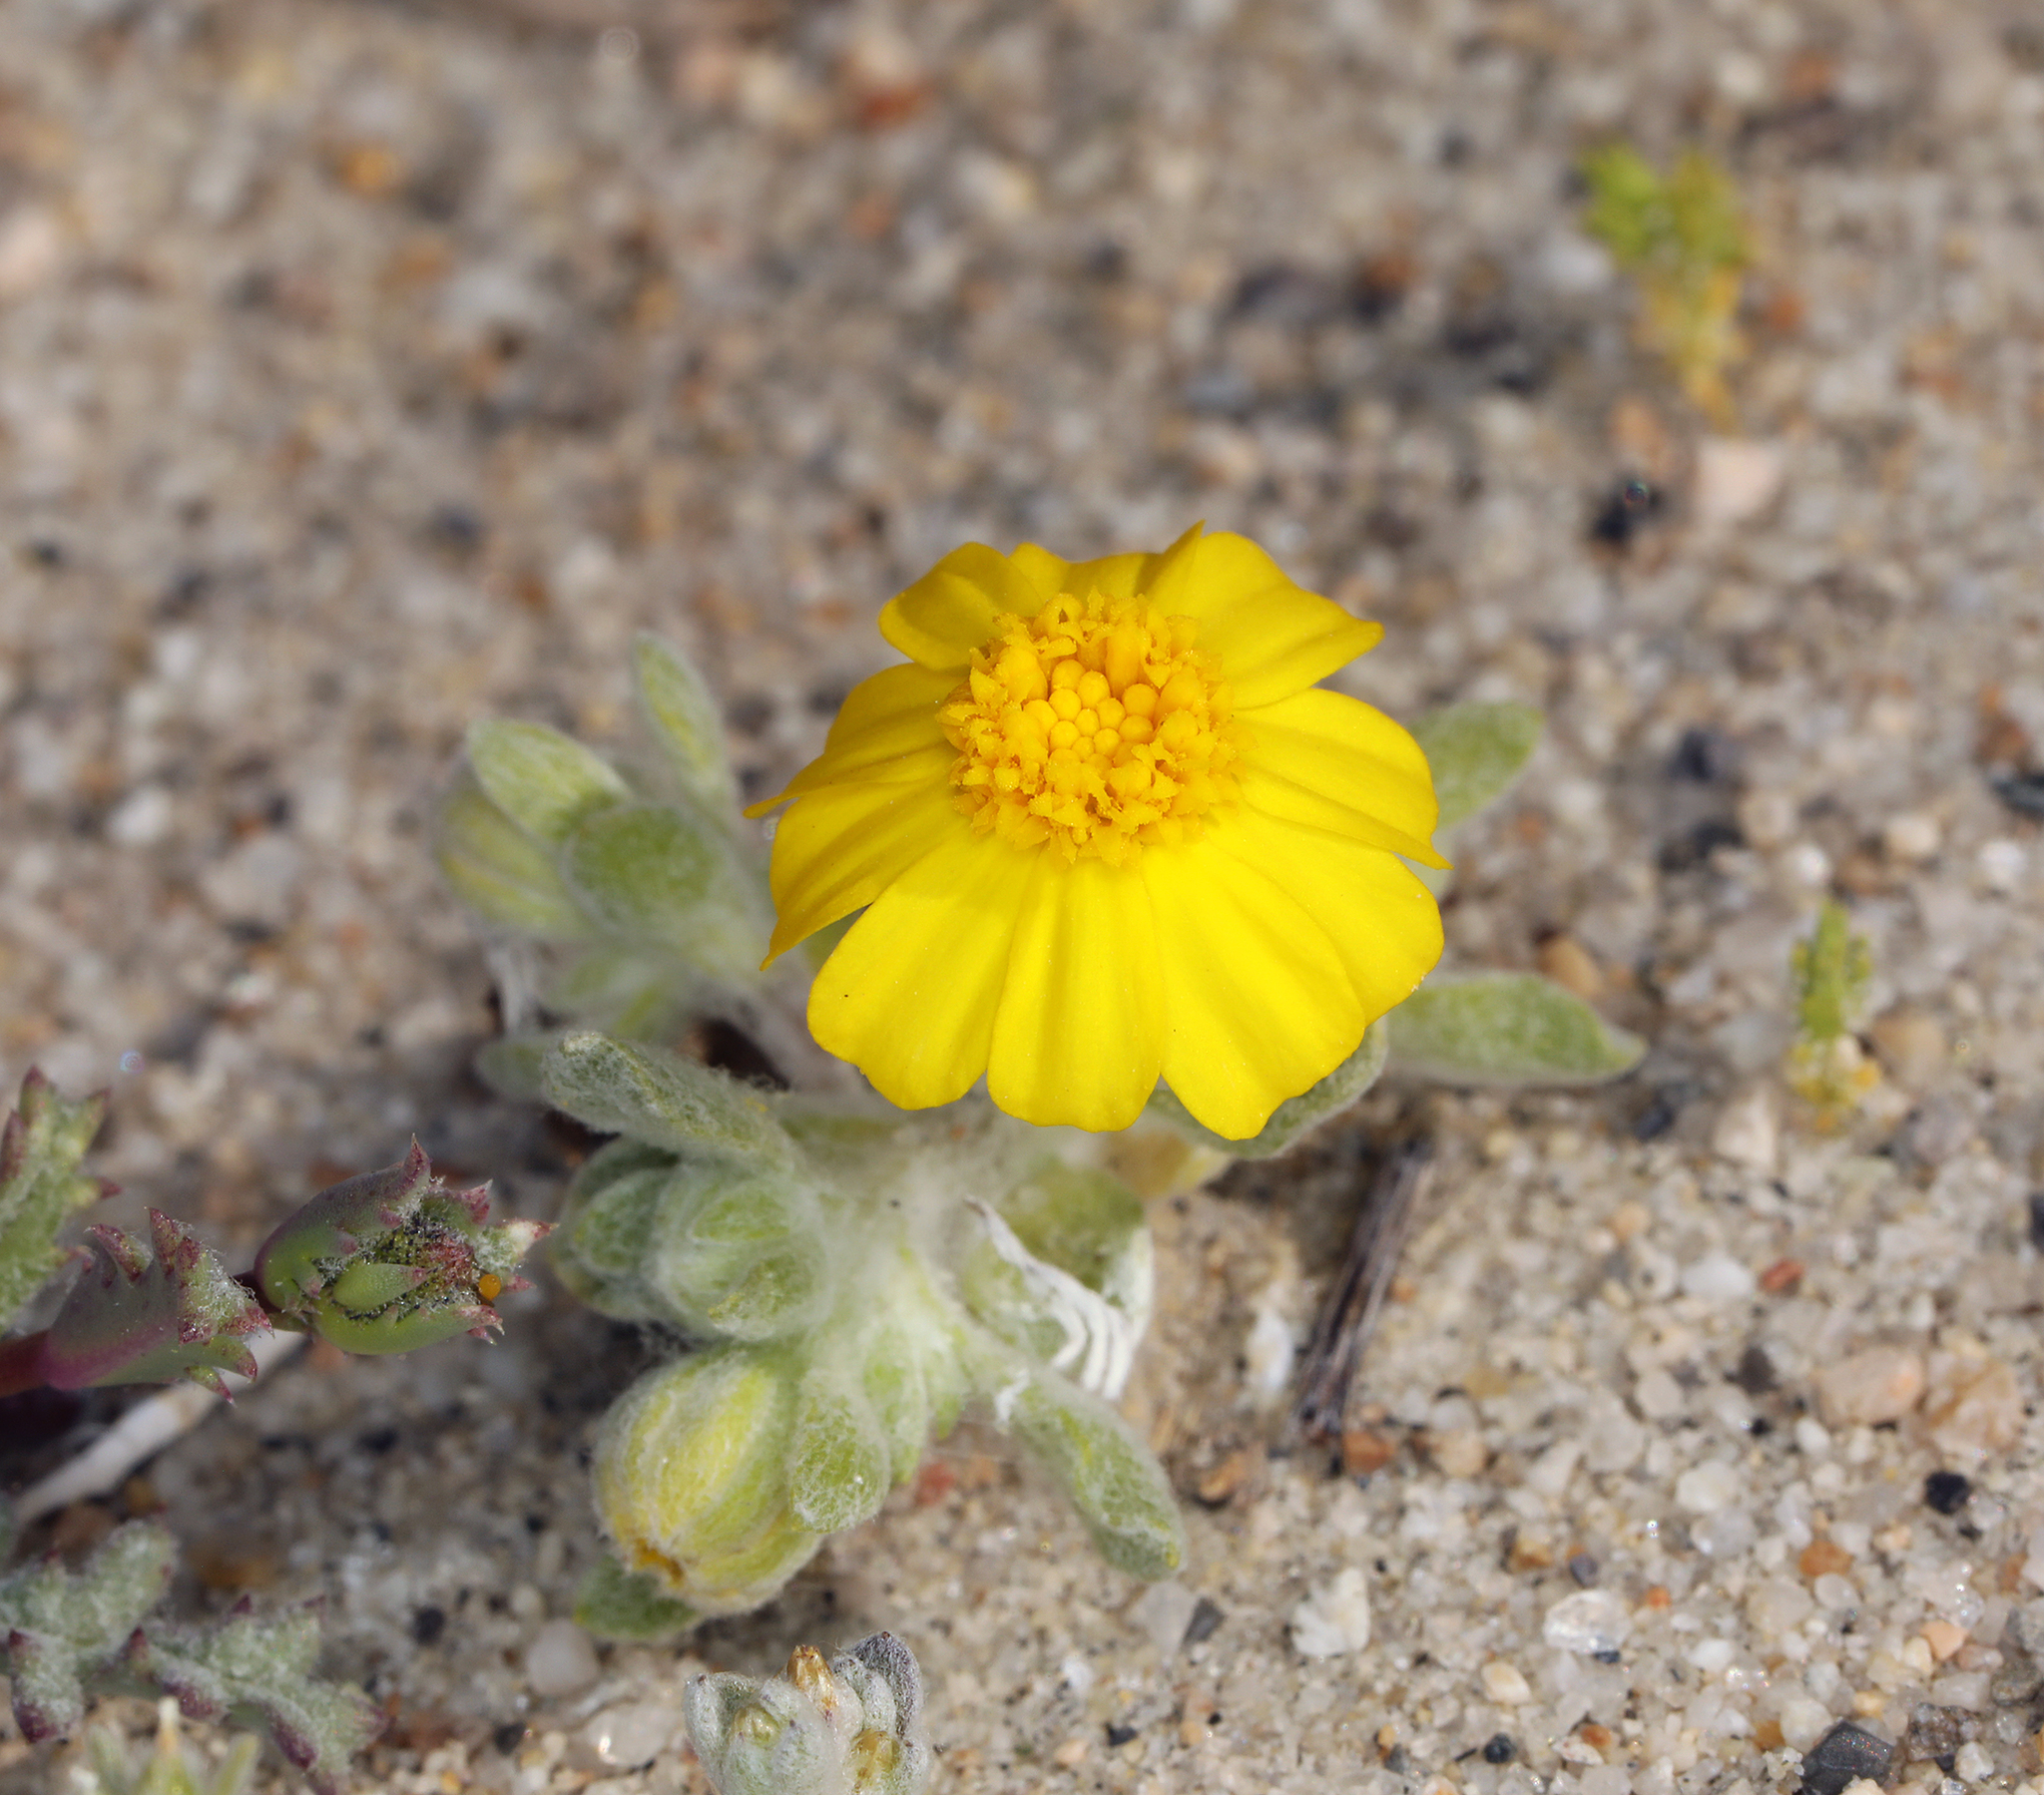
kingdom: Plantae
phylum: Tracheophyta
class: Magnoliopsida
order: Asterales
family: Asteraceae
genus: Eriophyllum
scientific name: Eriophyllum wallacei
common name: Wallace's woolly daisy
